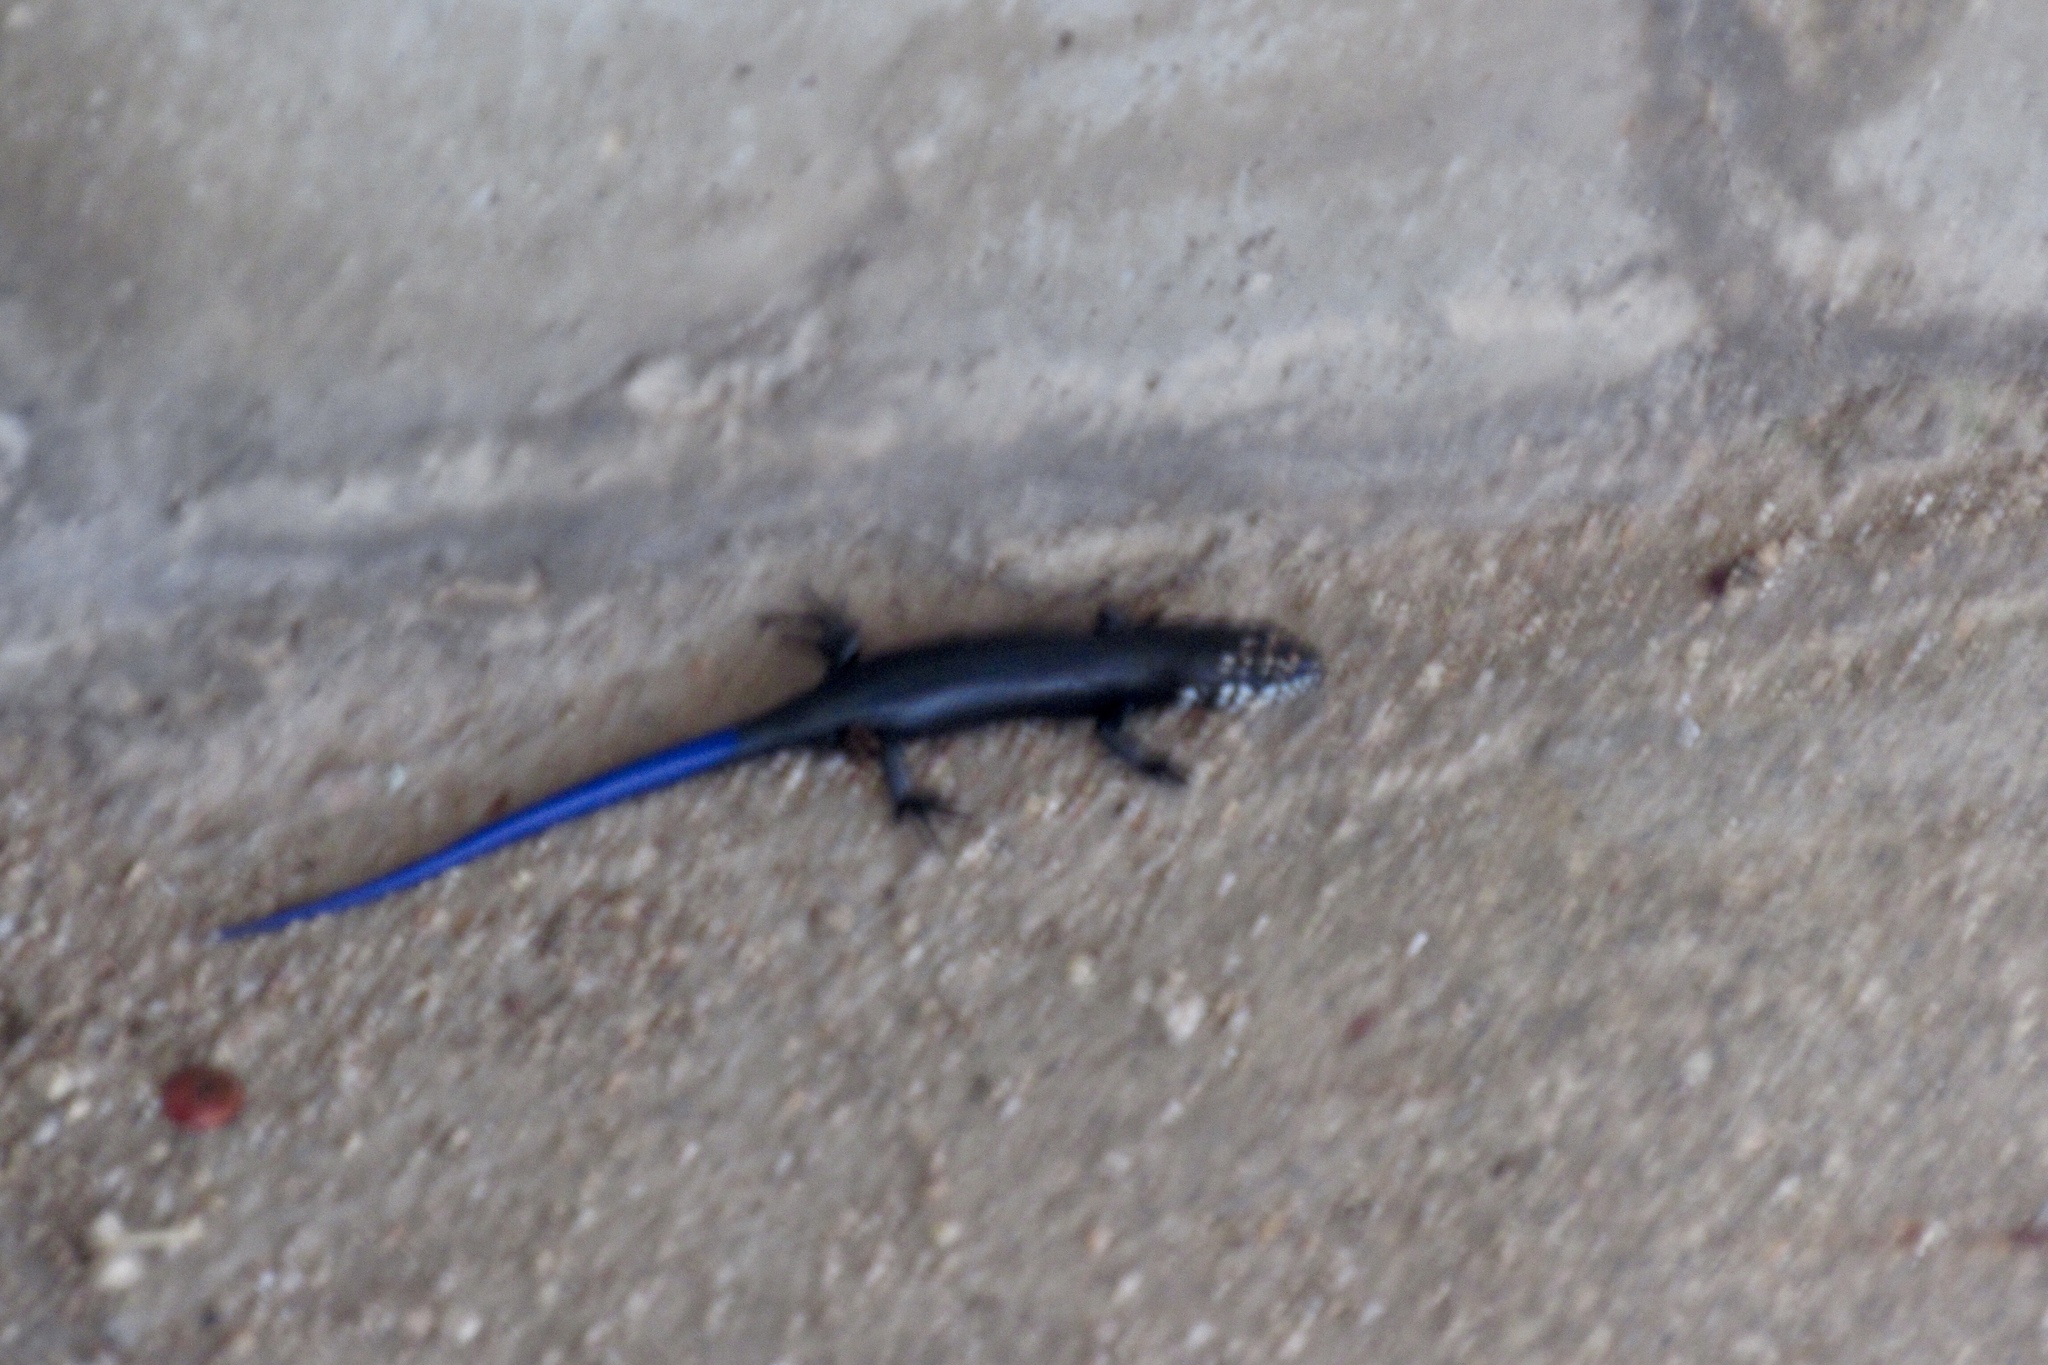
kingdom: Animalia
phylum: Chordata
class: Squamata
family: Scincidae
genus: Plestiodon
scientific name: Plestiodon obsoletus
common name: Great plains skink
